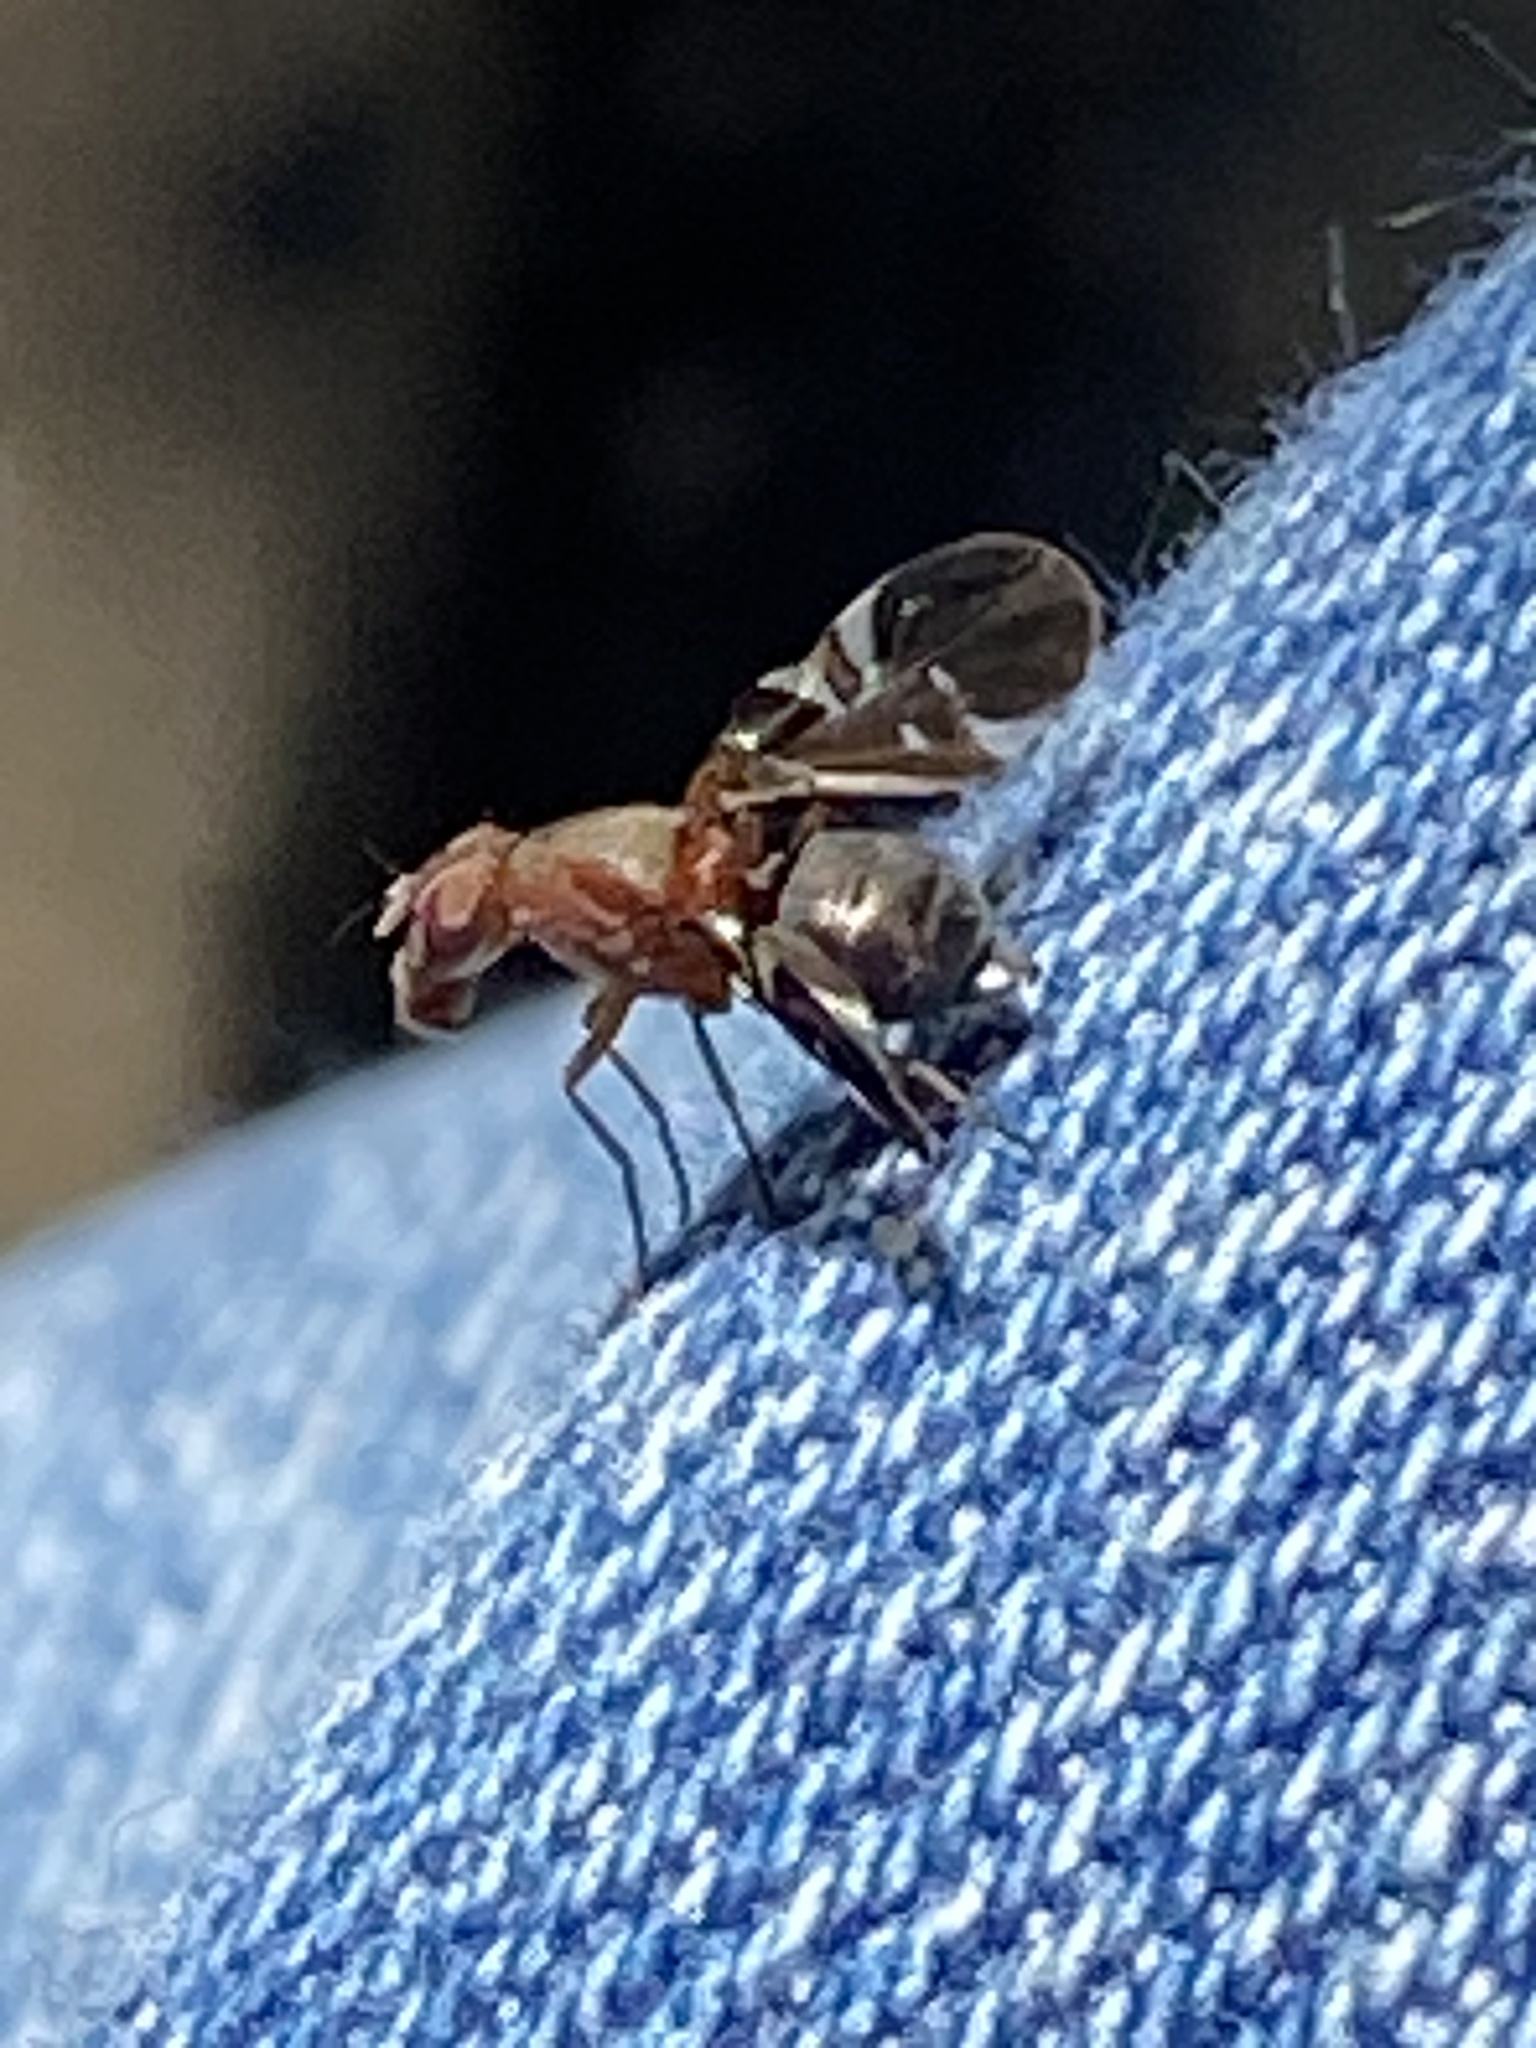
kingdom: Animalia
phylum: Arthropoda
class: Insecta
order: Diptera
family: Ulidiidae
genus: Delphinia
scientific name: Delphinia picta
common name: Common picture-winged fly
